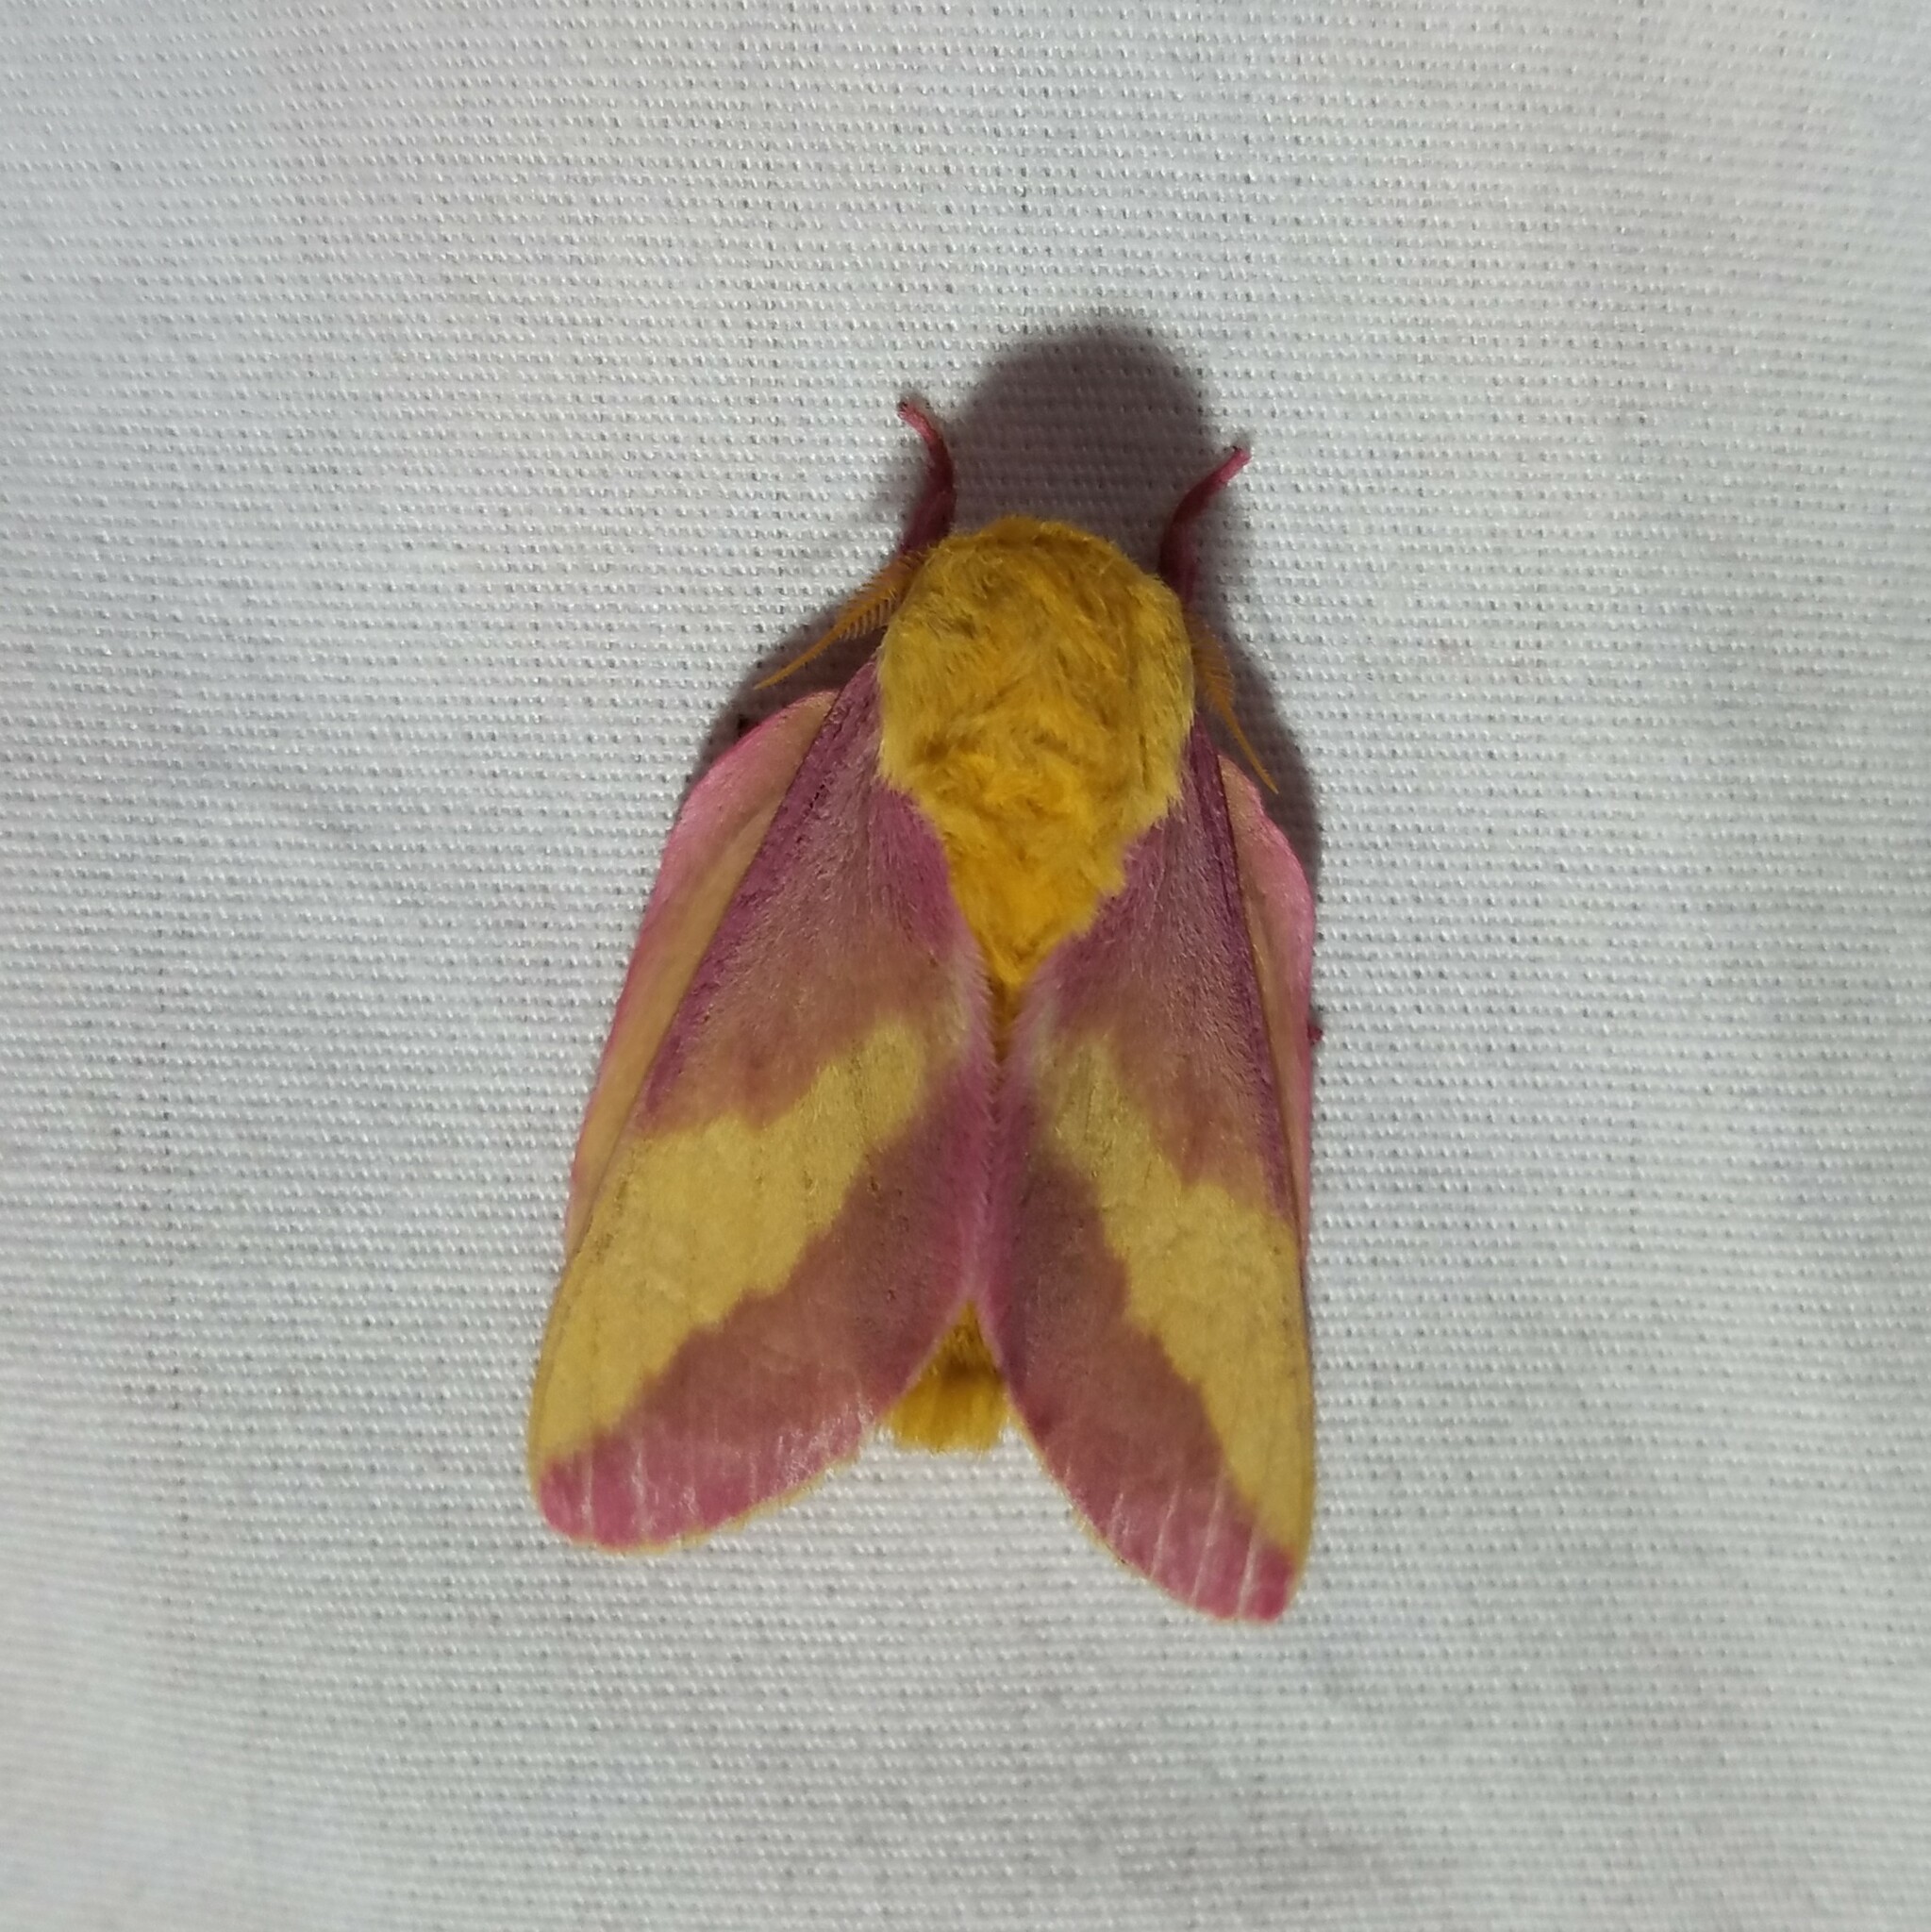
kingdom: Animalia
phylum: Arthropoda
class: Insecta
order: Lepidoptera
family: Saturniidae
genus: Dryocampa
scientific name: Dryocampa rubicunda
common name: Rosy maple moth
